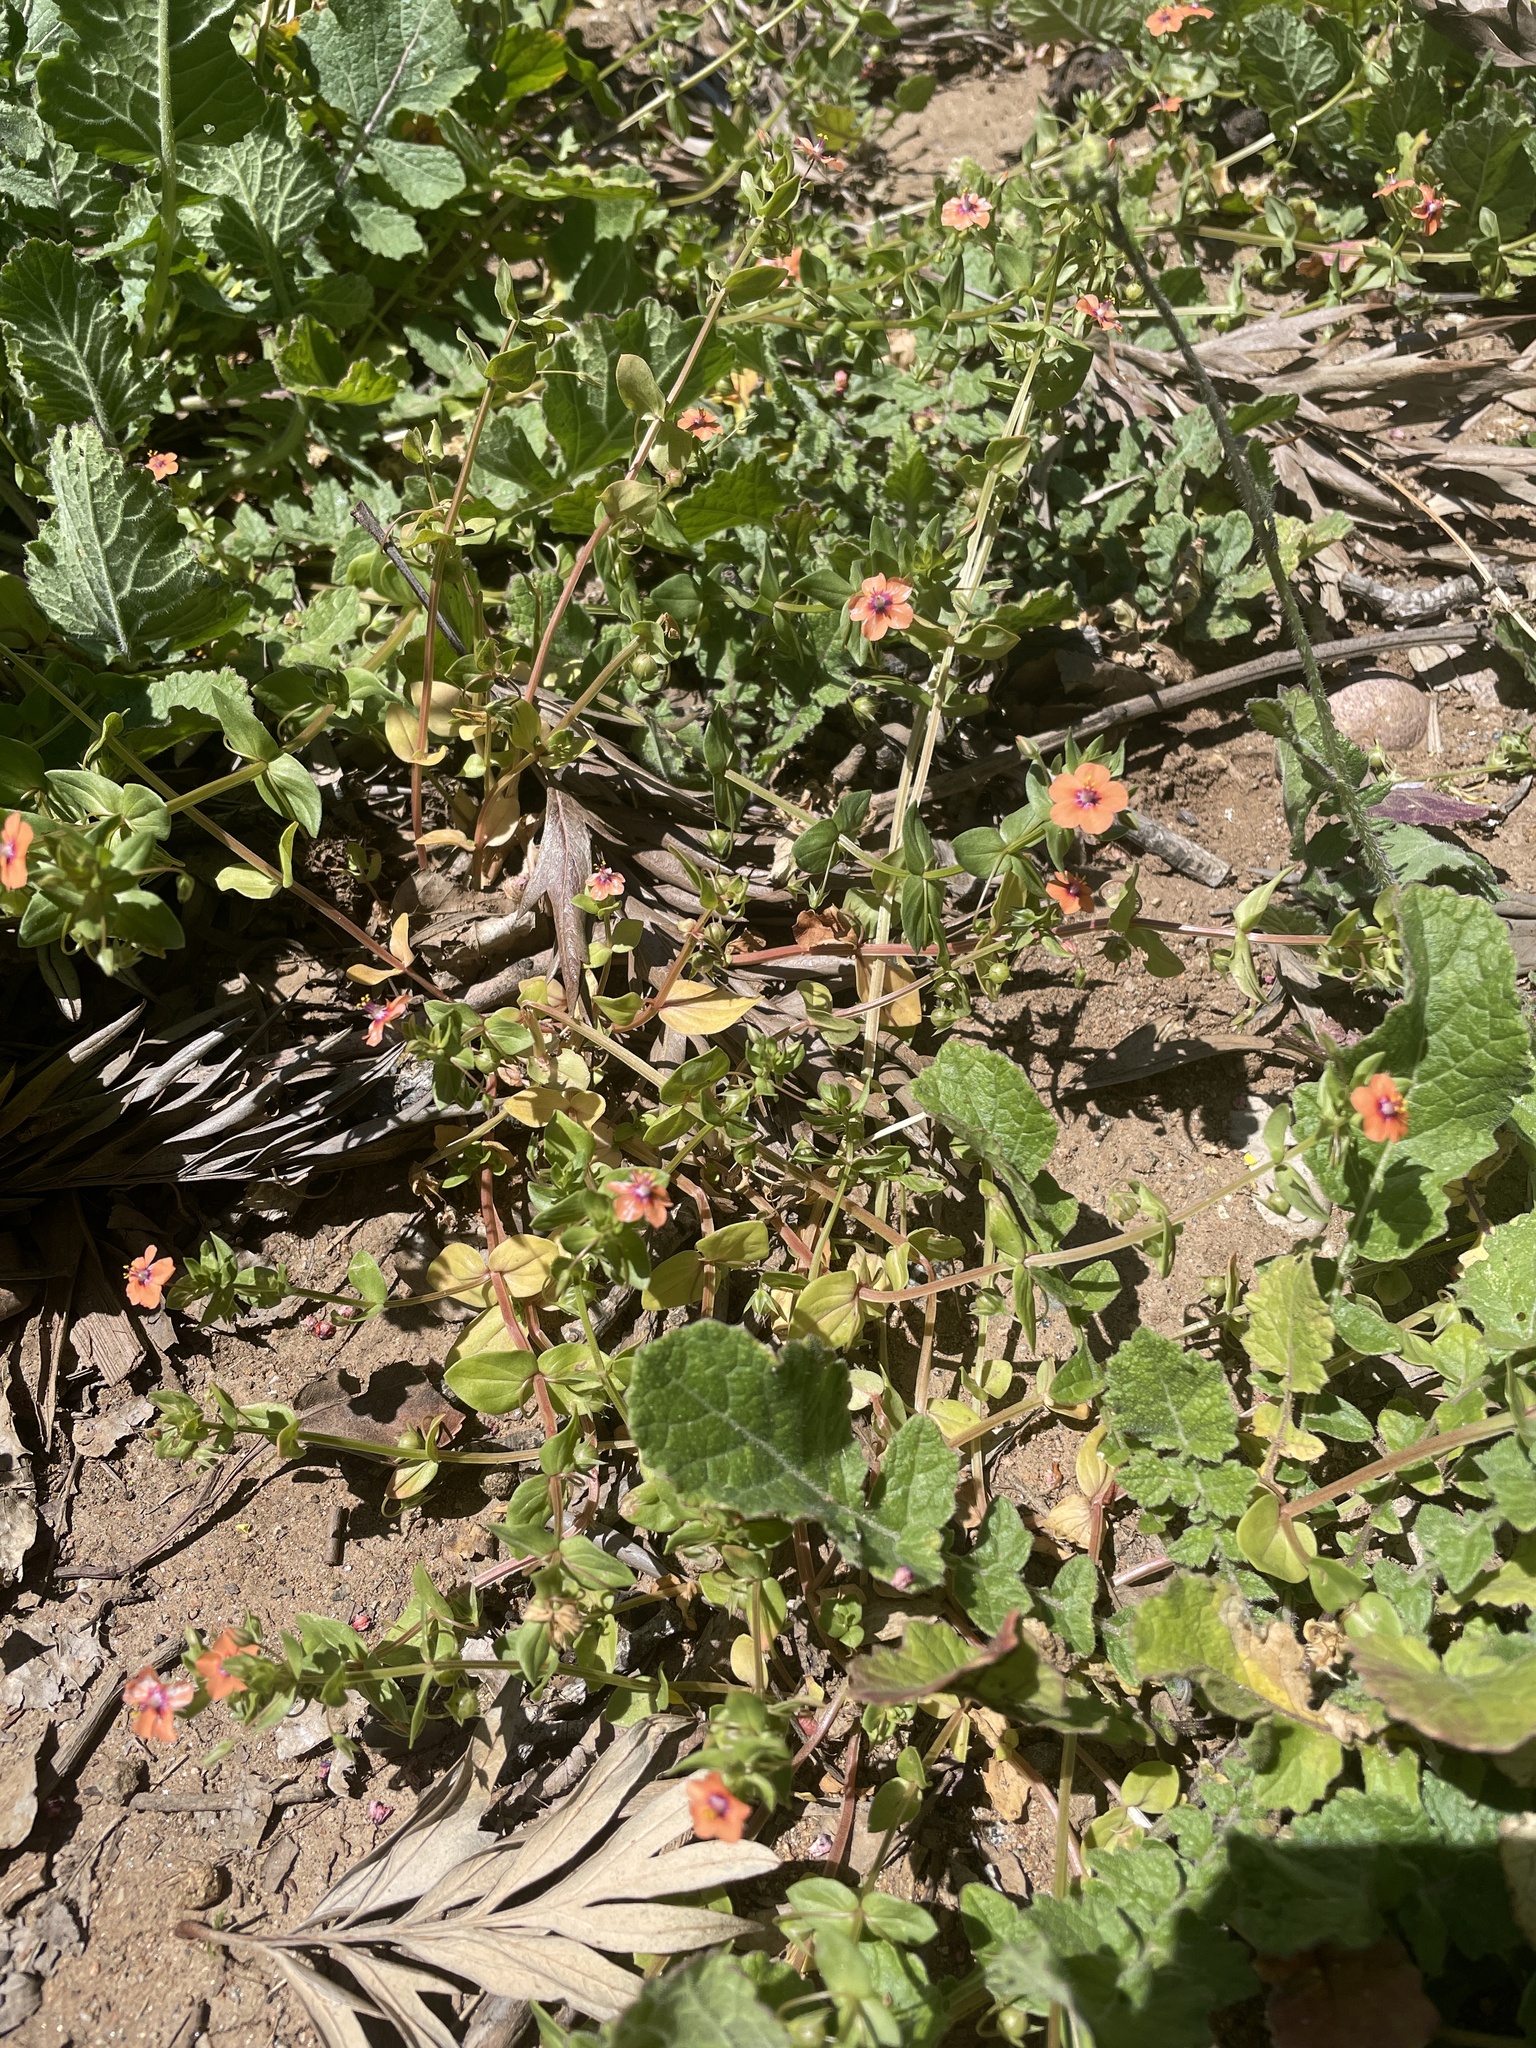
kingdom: Plantae
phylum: Tracheophyta
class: Magnoliopsida
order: Ericales
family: Primulaceae
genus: Lysimachia
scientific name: Lysimachia arvensis
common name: Scarlet pimpernel
